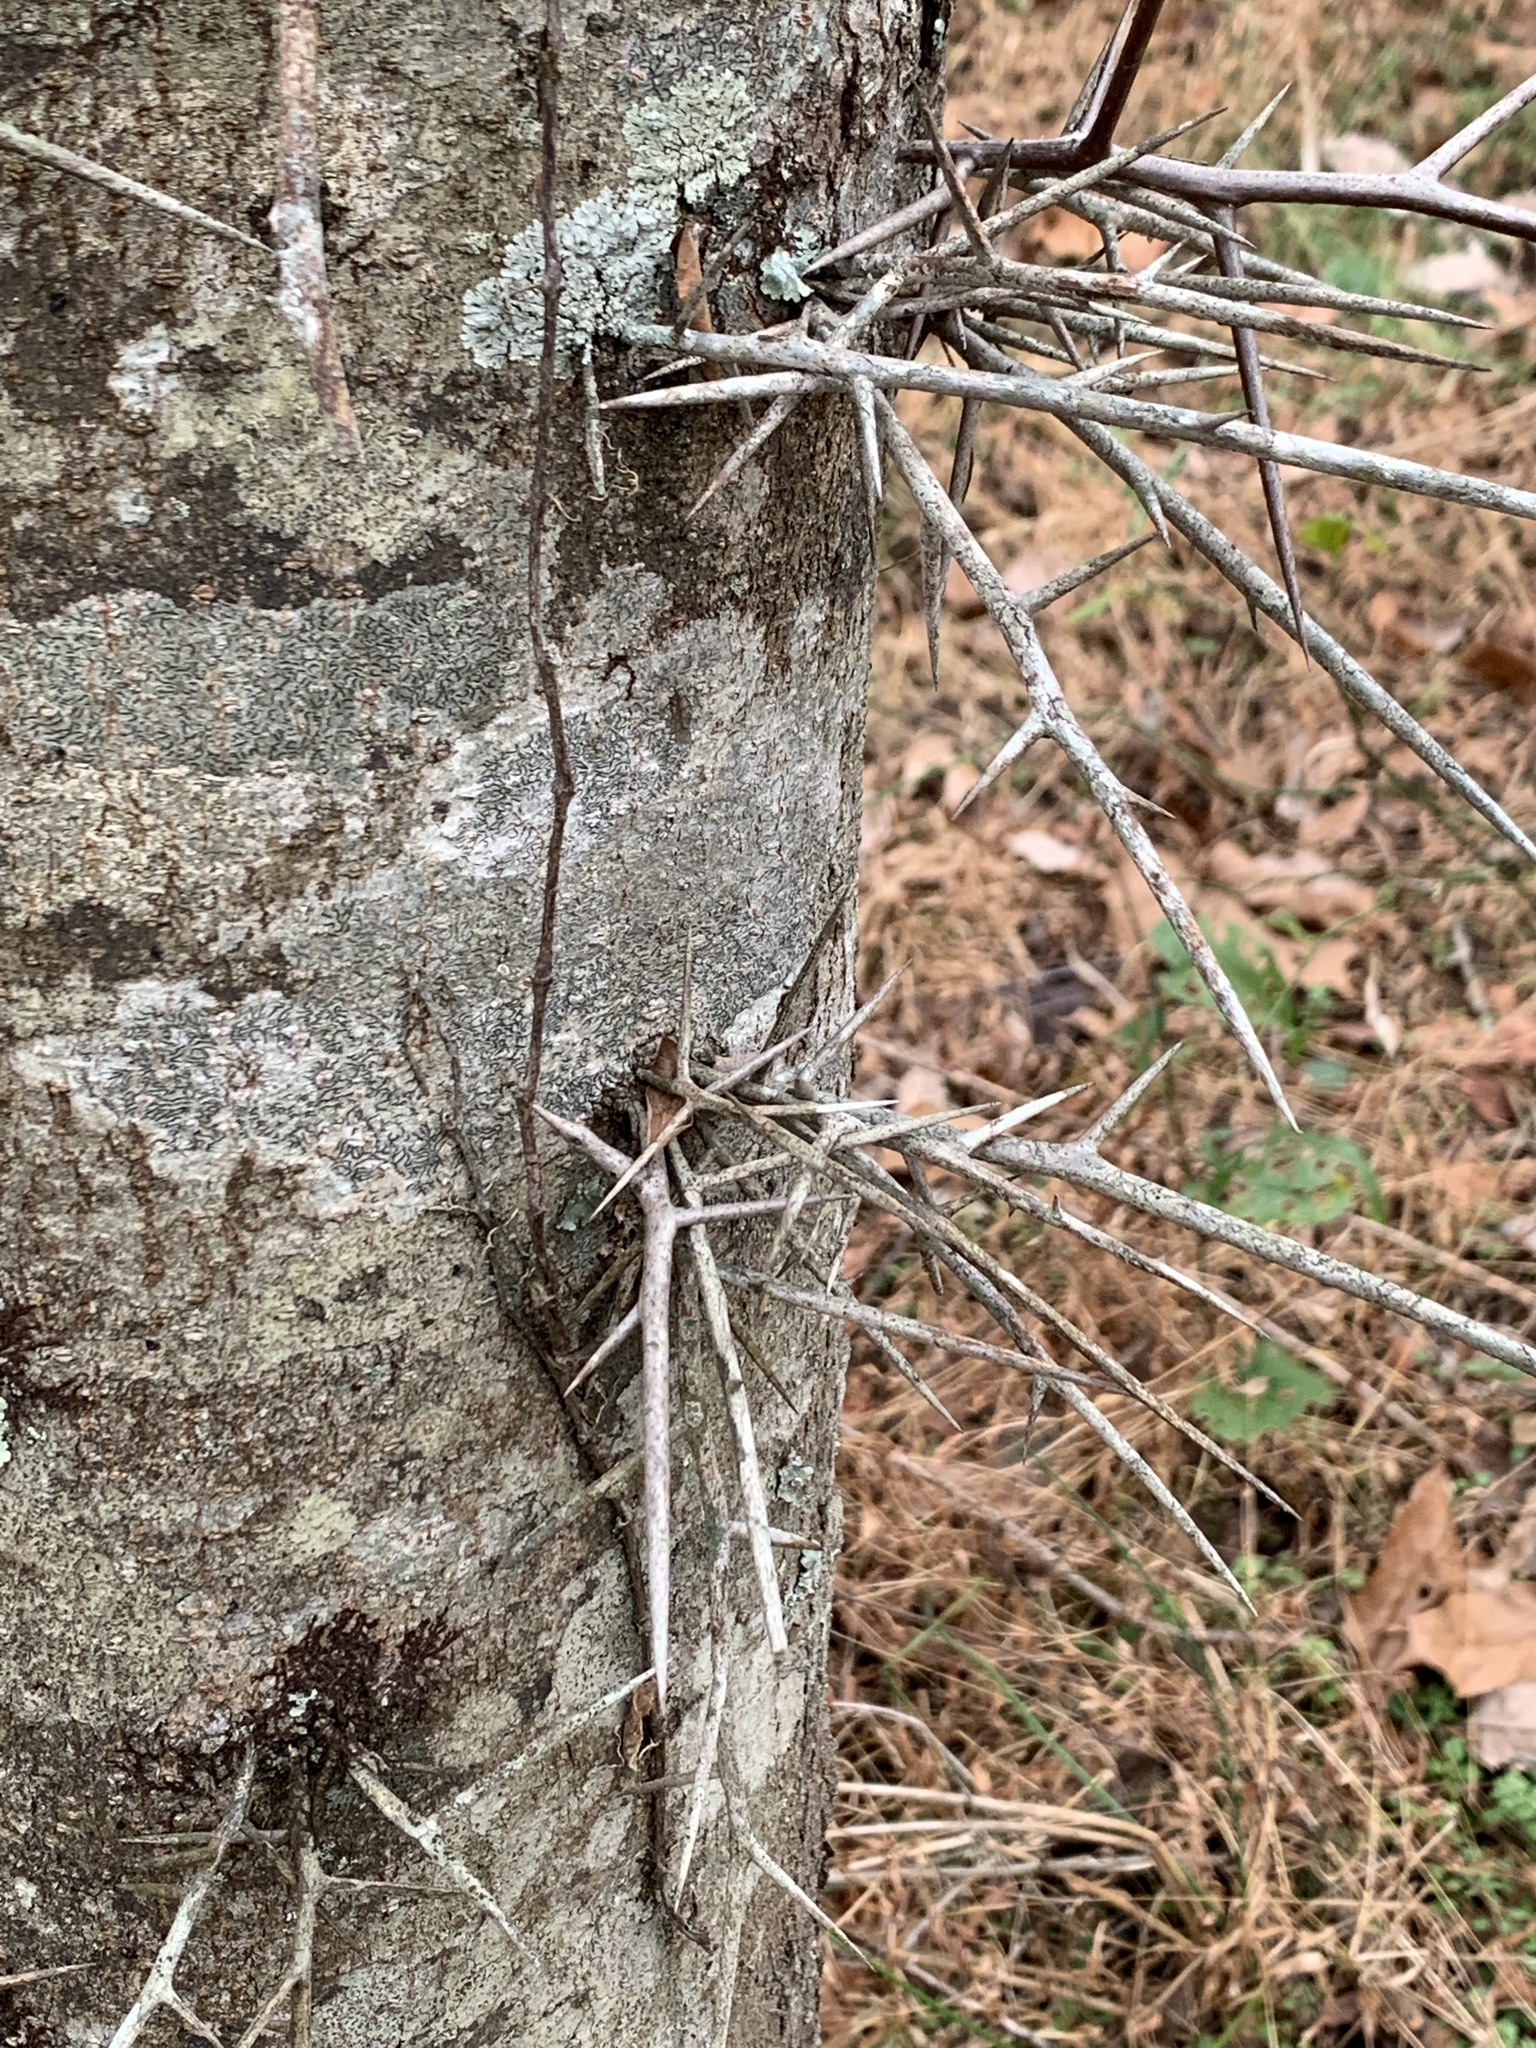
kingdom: Plantae
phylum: Tracheophyta
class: Magnoliopsida
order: Fabales
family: Fabaceae
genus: Gleditsia
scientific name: Gleditsia triacanthos
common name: Common honeylocust
